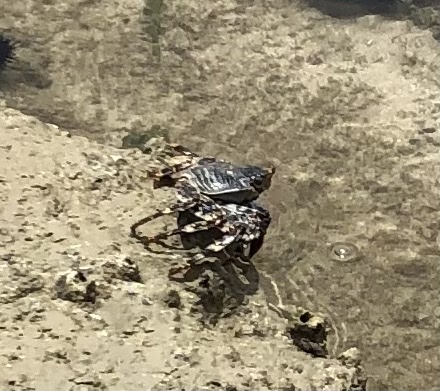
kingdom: Animalia
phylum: Arthropoda
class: Malacostraca
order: Decapoda
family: Grapsidae
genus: Grapsus
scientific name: Grapsus grapsus
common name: Sally lightfoot
